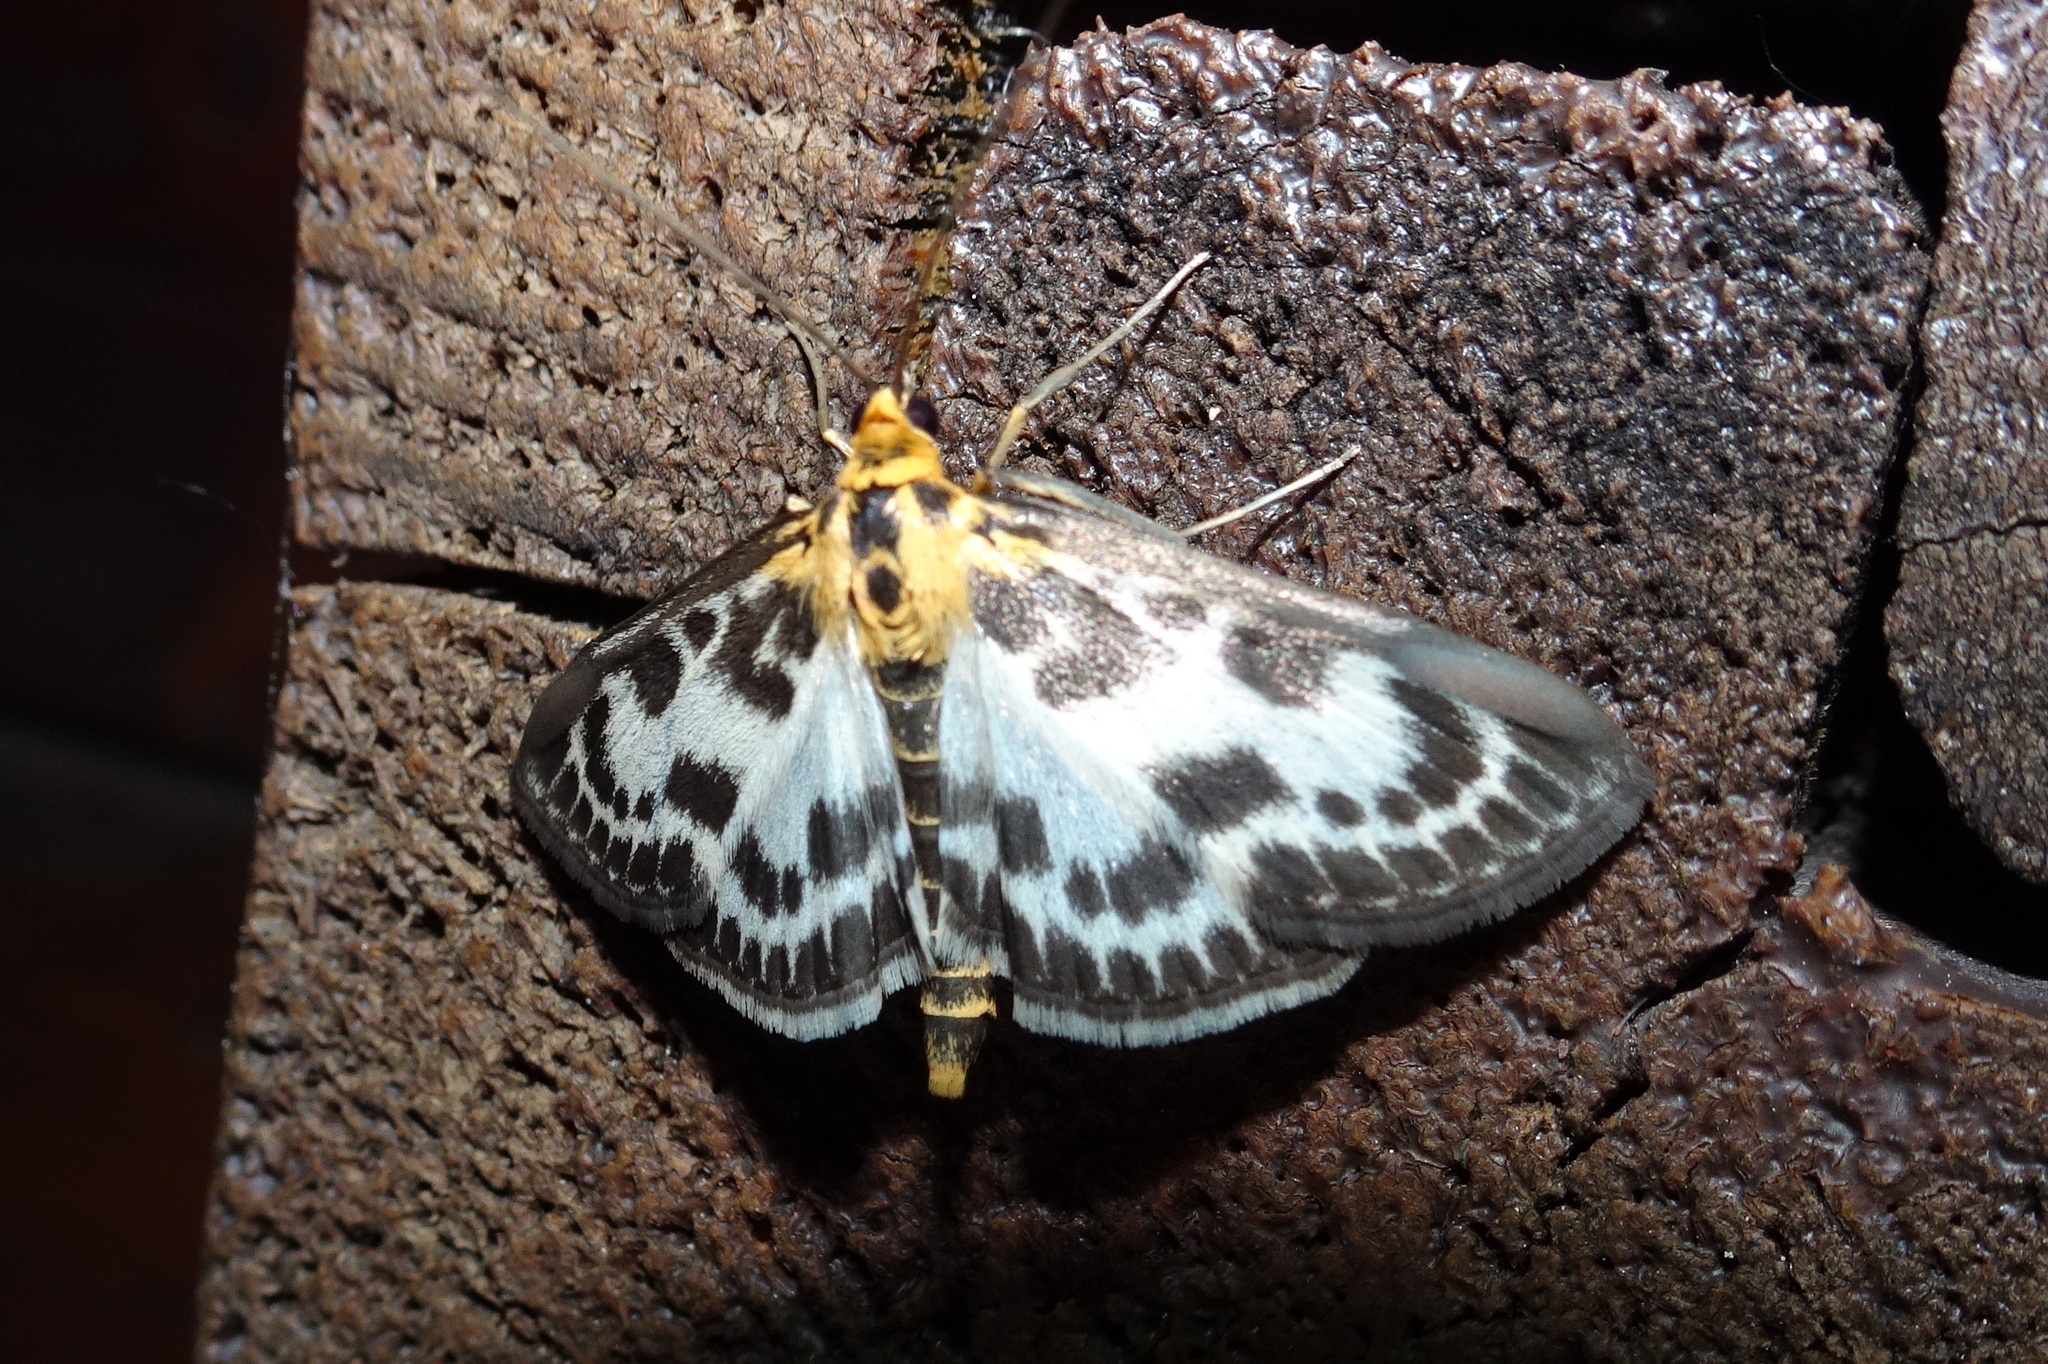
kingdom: Animalia
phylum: Arthropoda
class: Insecta
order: Lepidoptera
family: Crambidae
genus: Anania
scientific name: Anania hortulata
